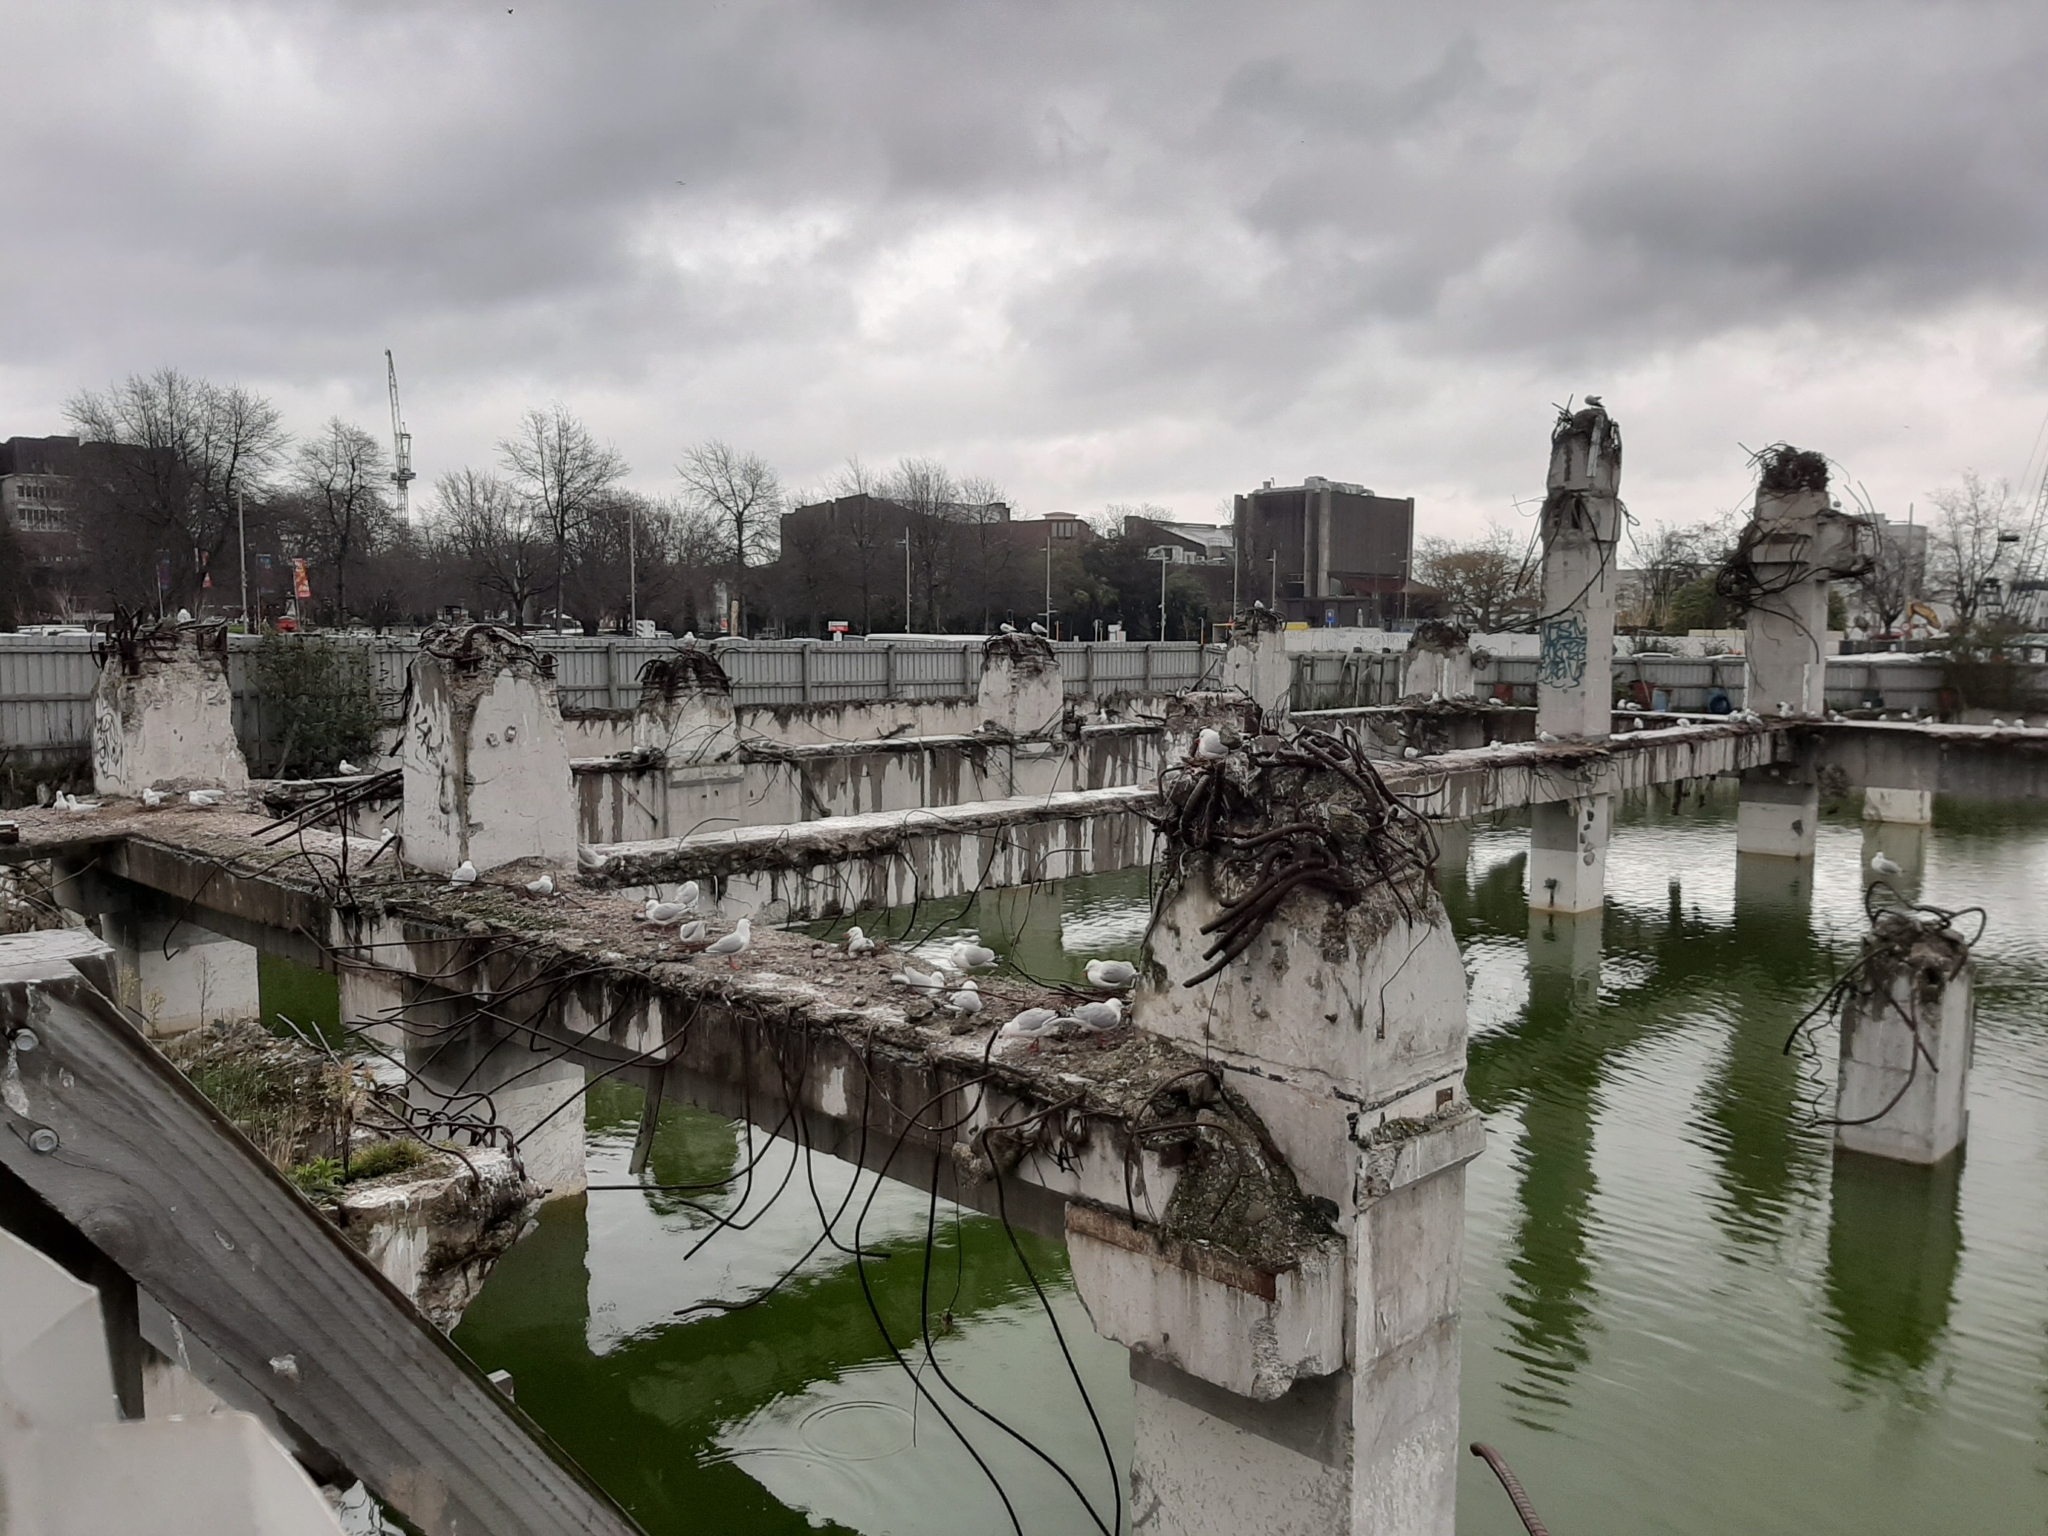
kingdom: Animalia
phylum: Chordata
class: Aves
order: Charadriiformes
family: Laridae
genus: Chroicocephalus
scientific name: Chroicocephalus novaehollandiae
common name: Silver gull
